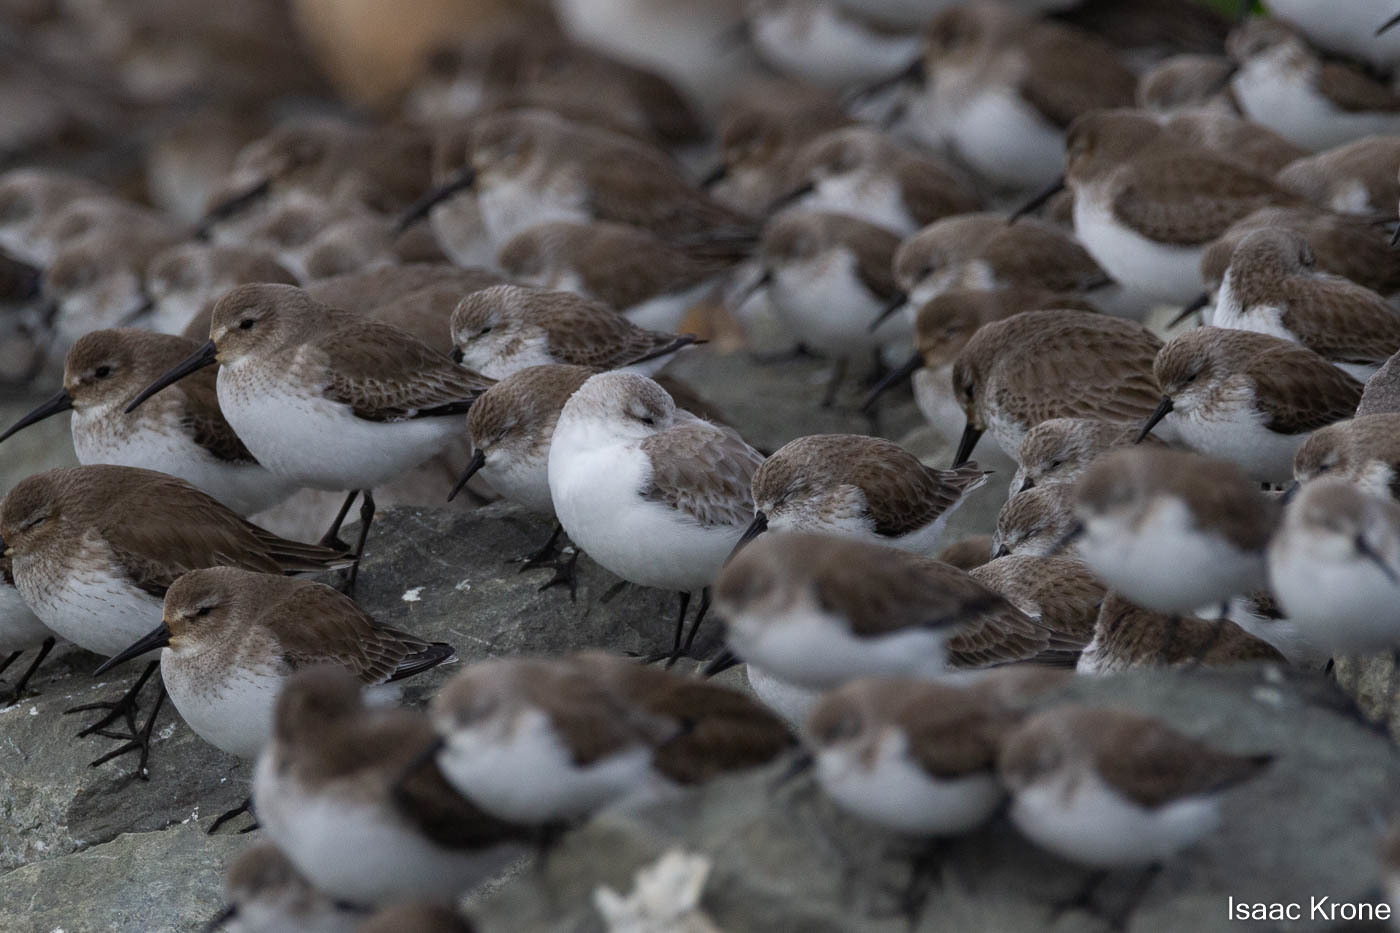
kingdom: Animalia
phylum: Chordata
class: Aves
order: Charadriiformes
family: Scolopacidae
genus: Calidris
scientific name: Calidris alba
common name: Sanderling
